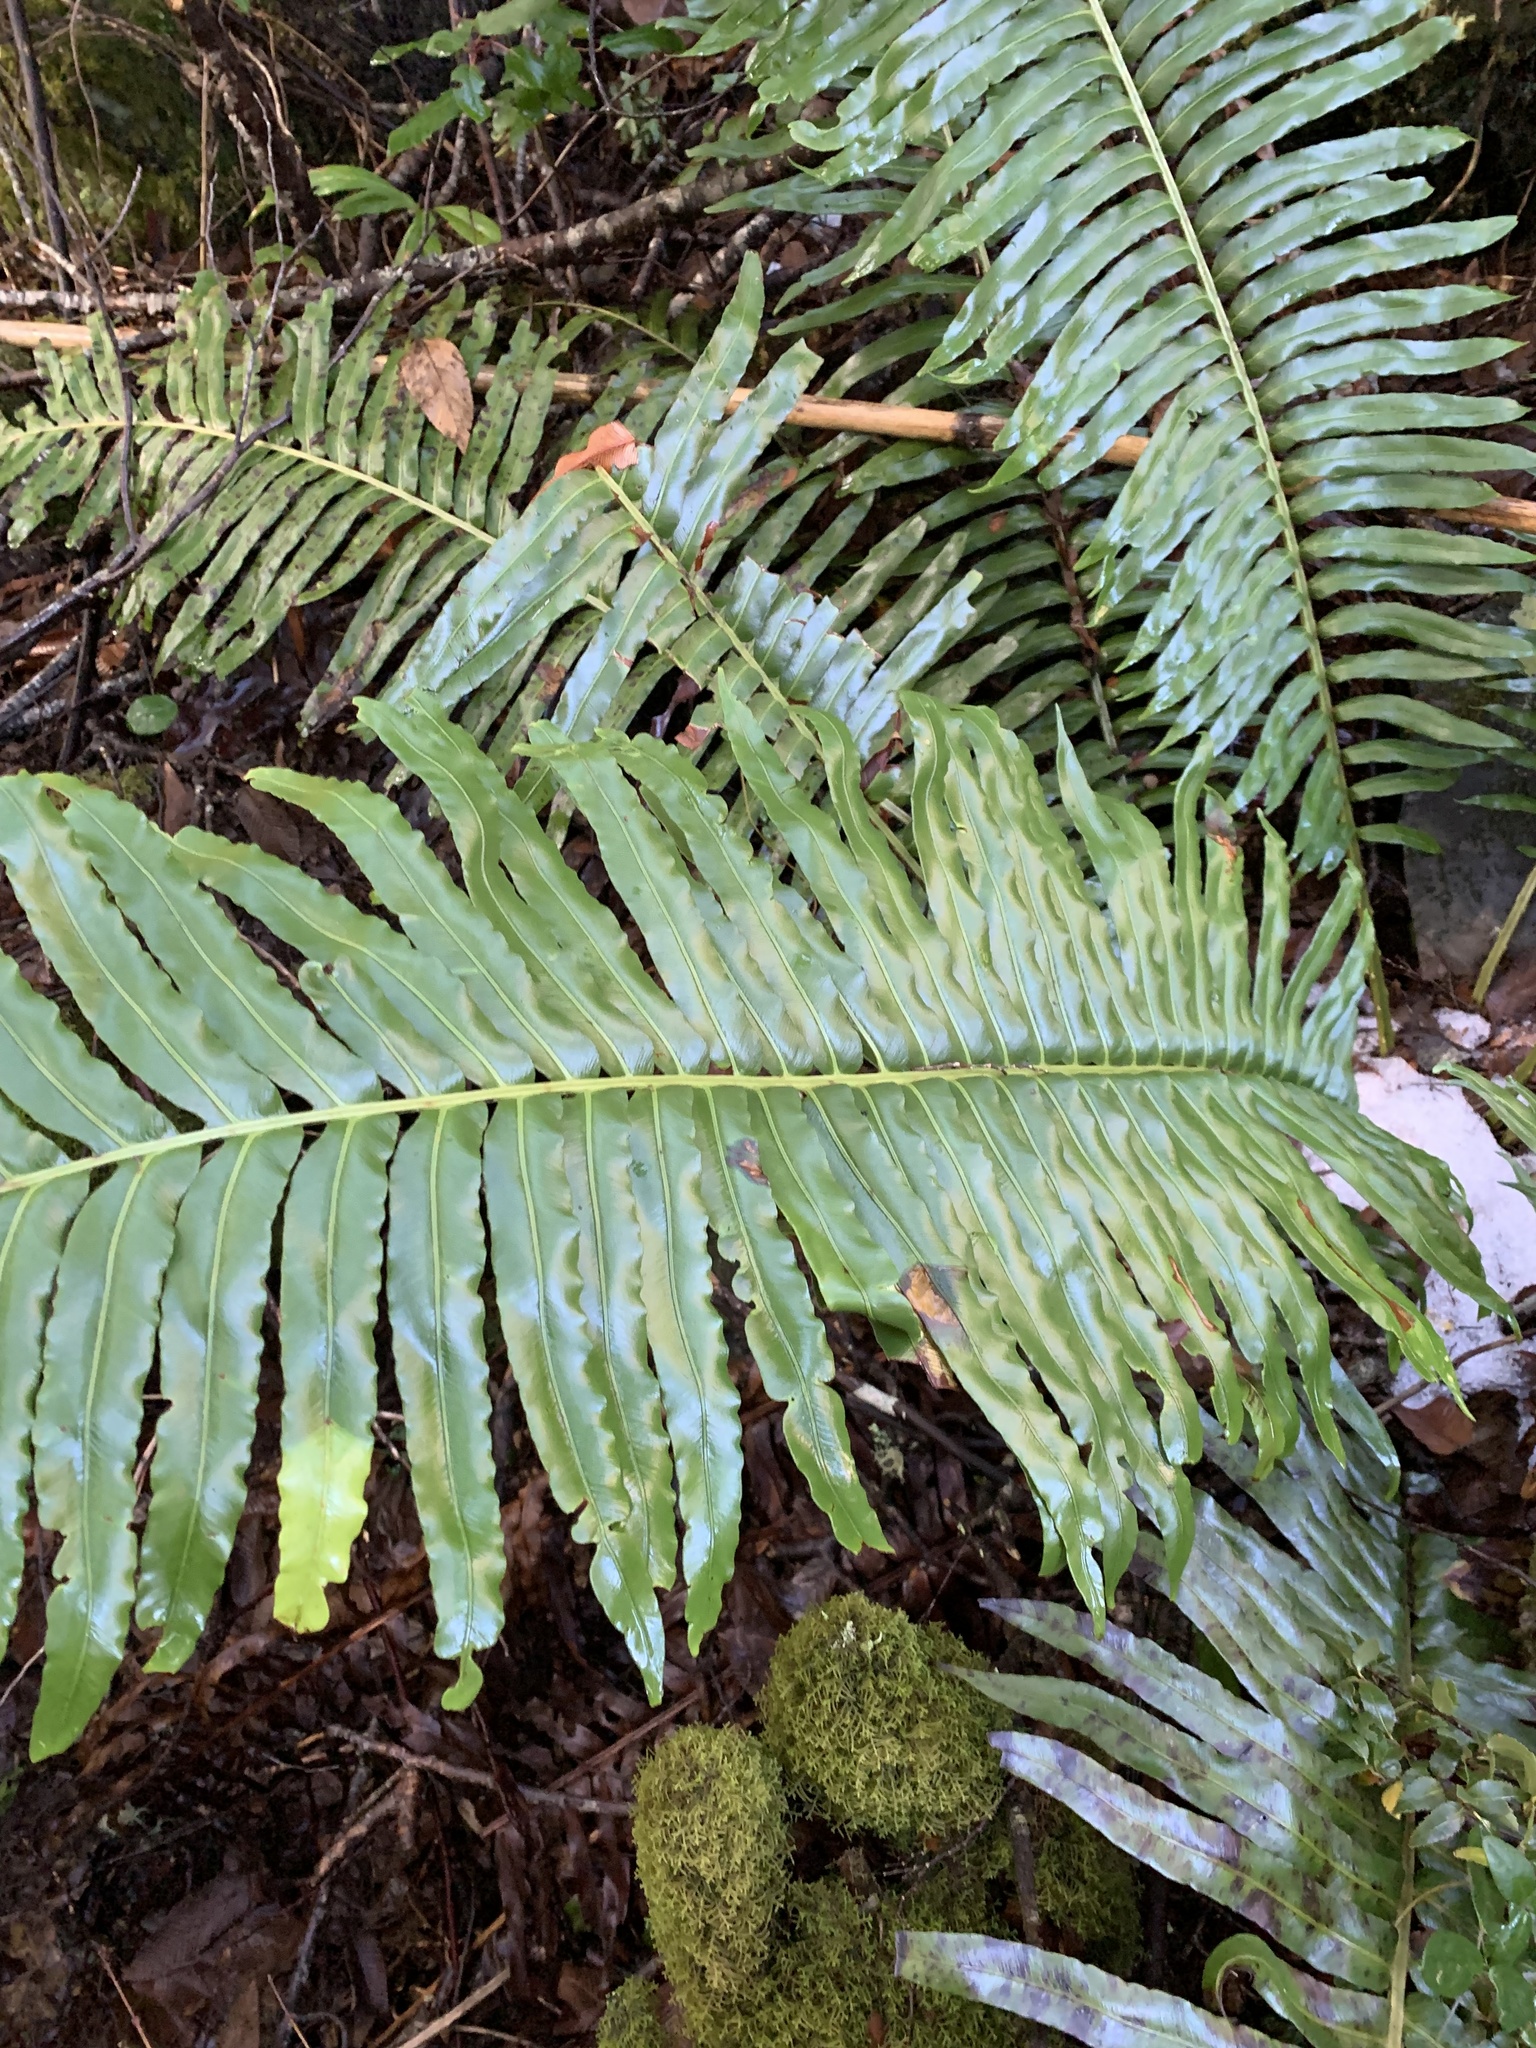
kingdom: Plantae
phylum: Tracheophyta
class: Polypodiopsida
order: Polypodiales
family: Blechnaceae
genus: Lomariocycas
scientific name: Lomariocycas magellanica
